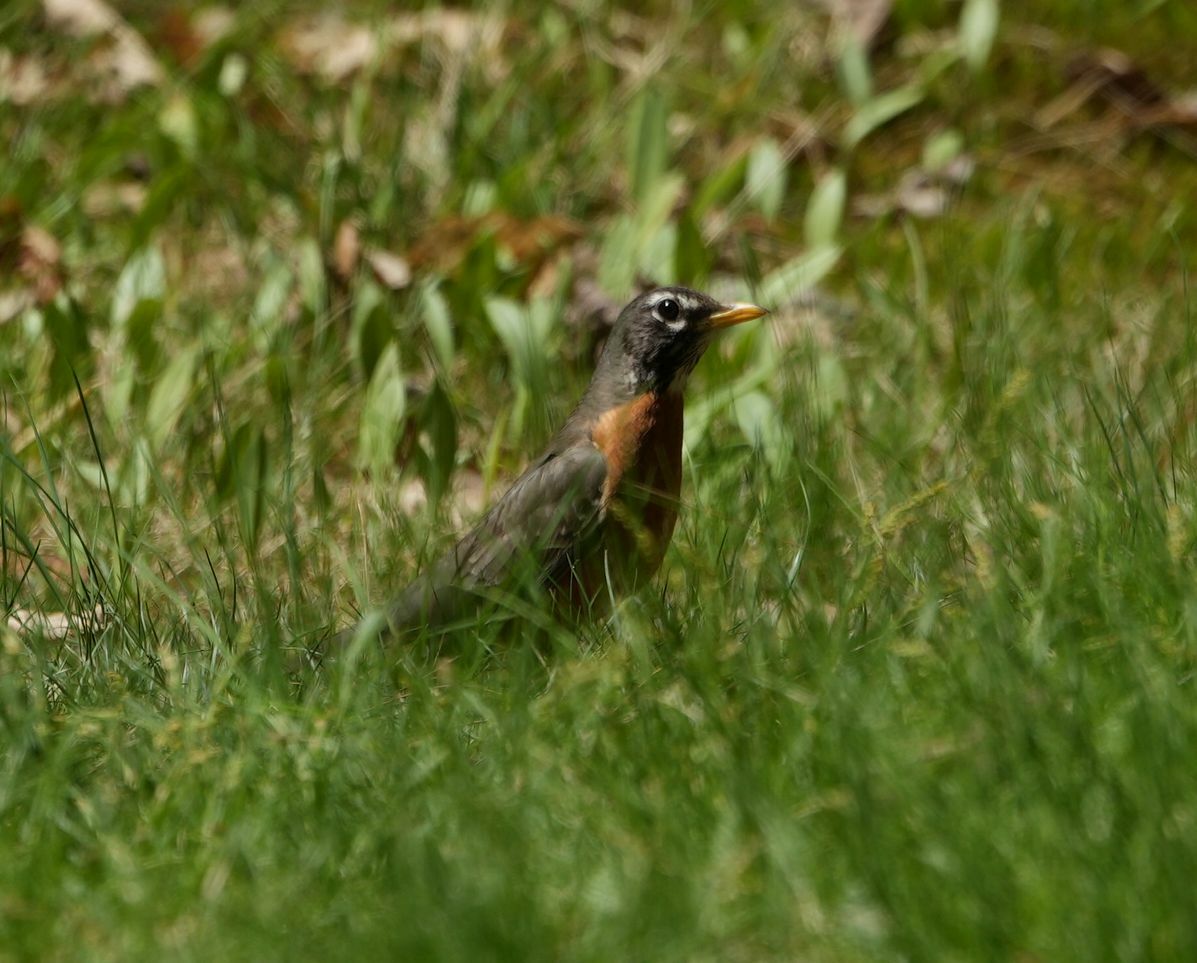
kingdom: Animalia
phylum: Chordata
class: Aves
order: Passeriformes
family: Turdidae
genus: Turdus
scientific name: Turdus migratorius
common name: American robin
